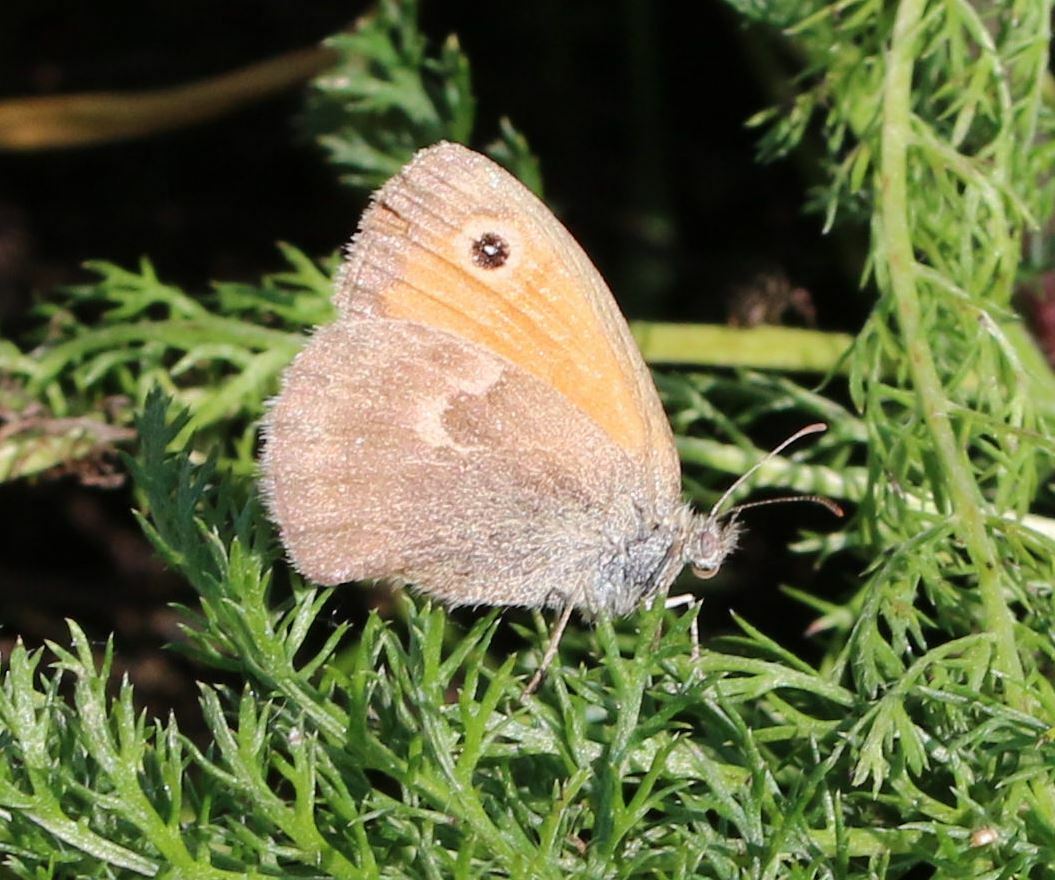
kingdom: Animalia
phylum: Arthropoda
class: Insecta
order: Lepidoptera
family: Nymphalidae
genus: Coenonympha
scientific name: Coenonympha pamphilus
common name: Small heath
